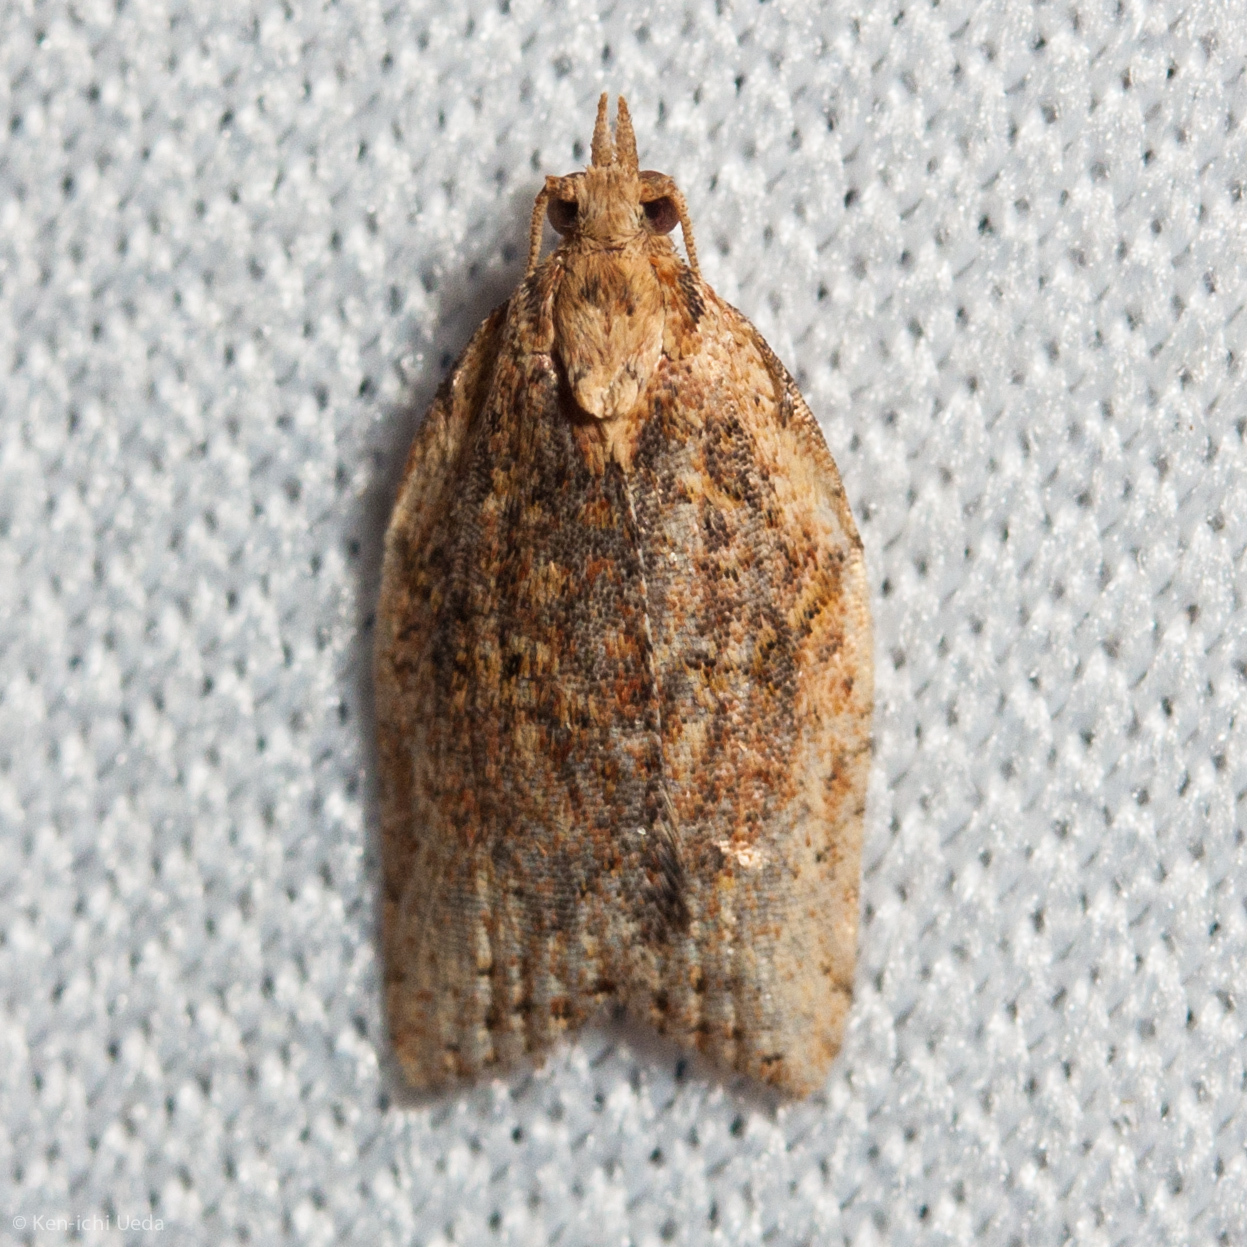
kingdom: Animalia
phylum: Arthropoda
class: Insecta
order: Lepidoptera
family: Tortricidae
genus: Epiphyas
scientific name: Epiphyas postvittana
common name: Light brown apple moth
